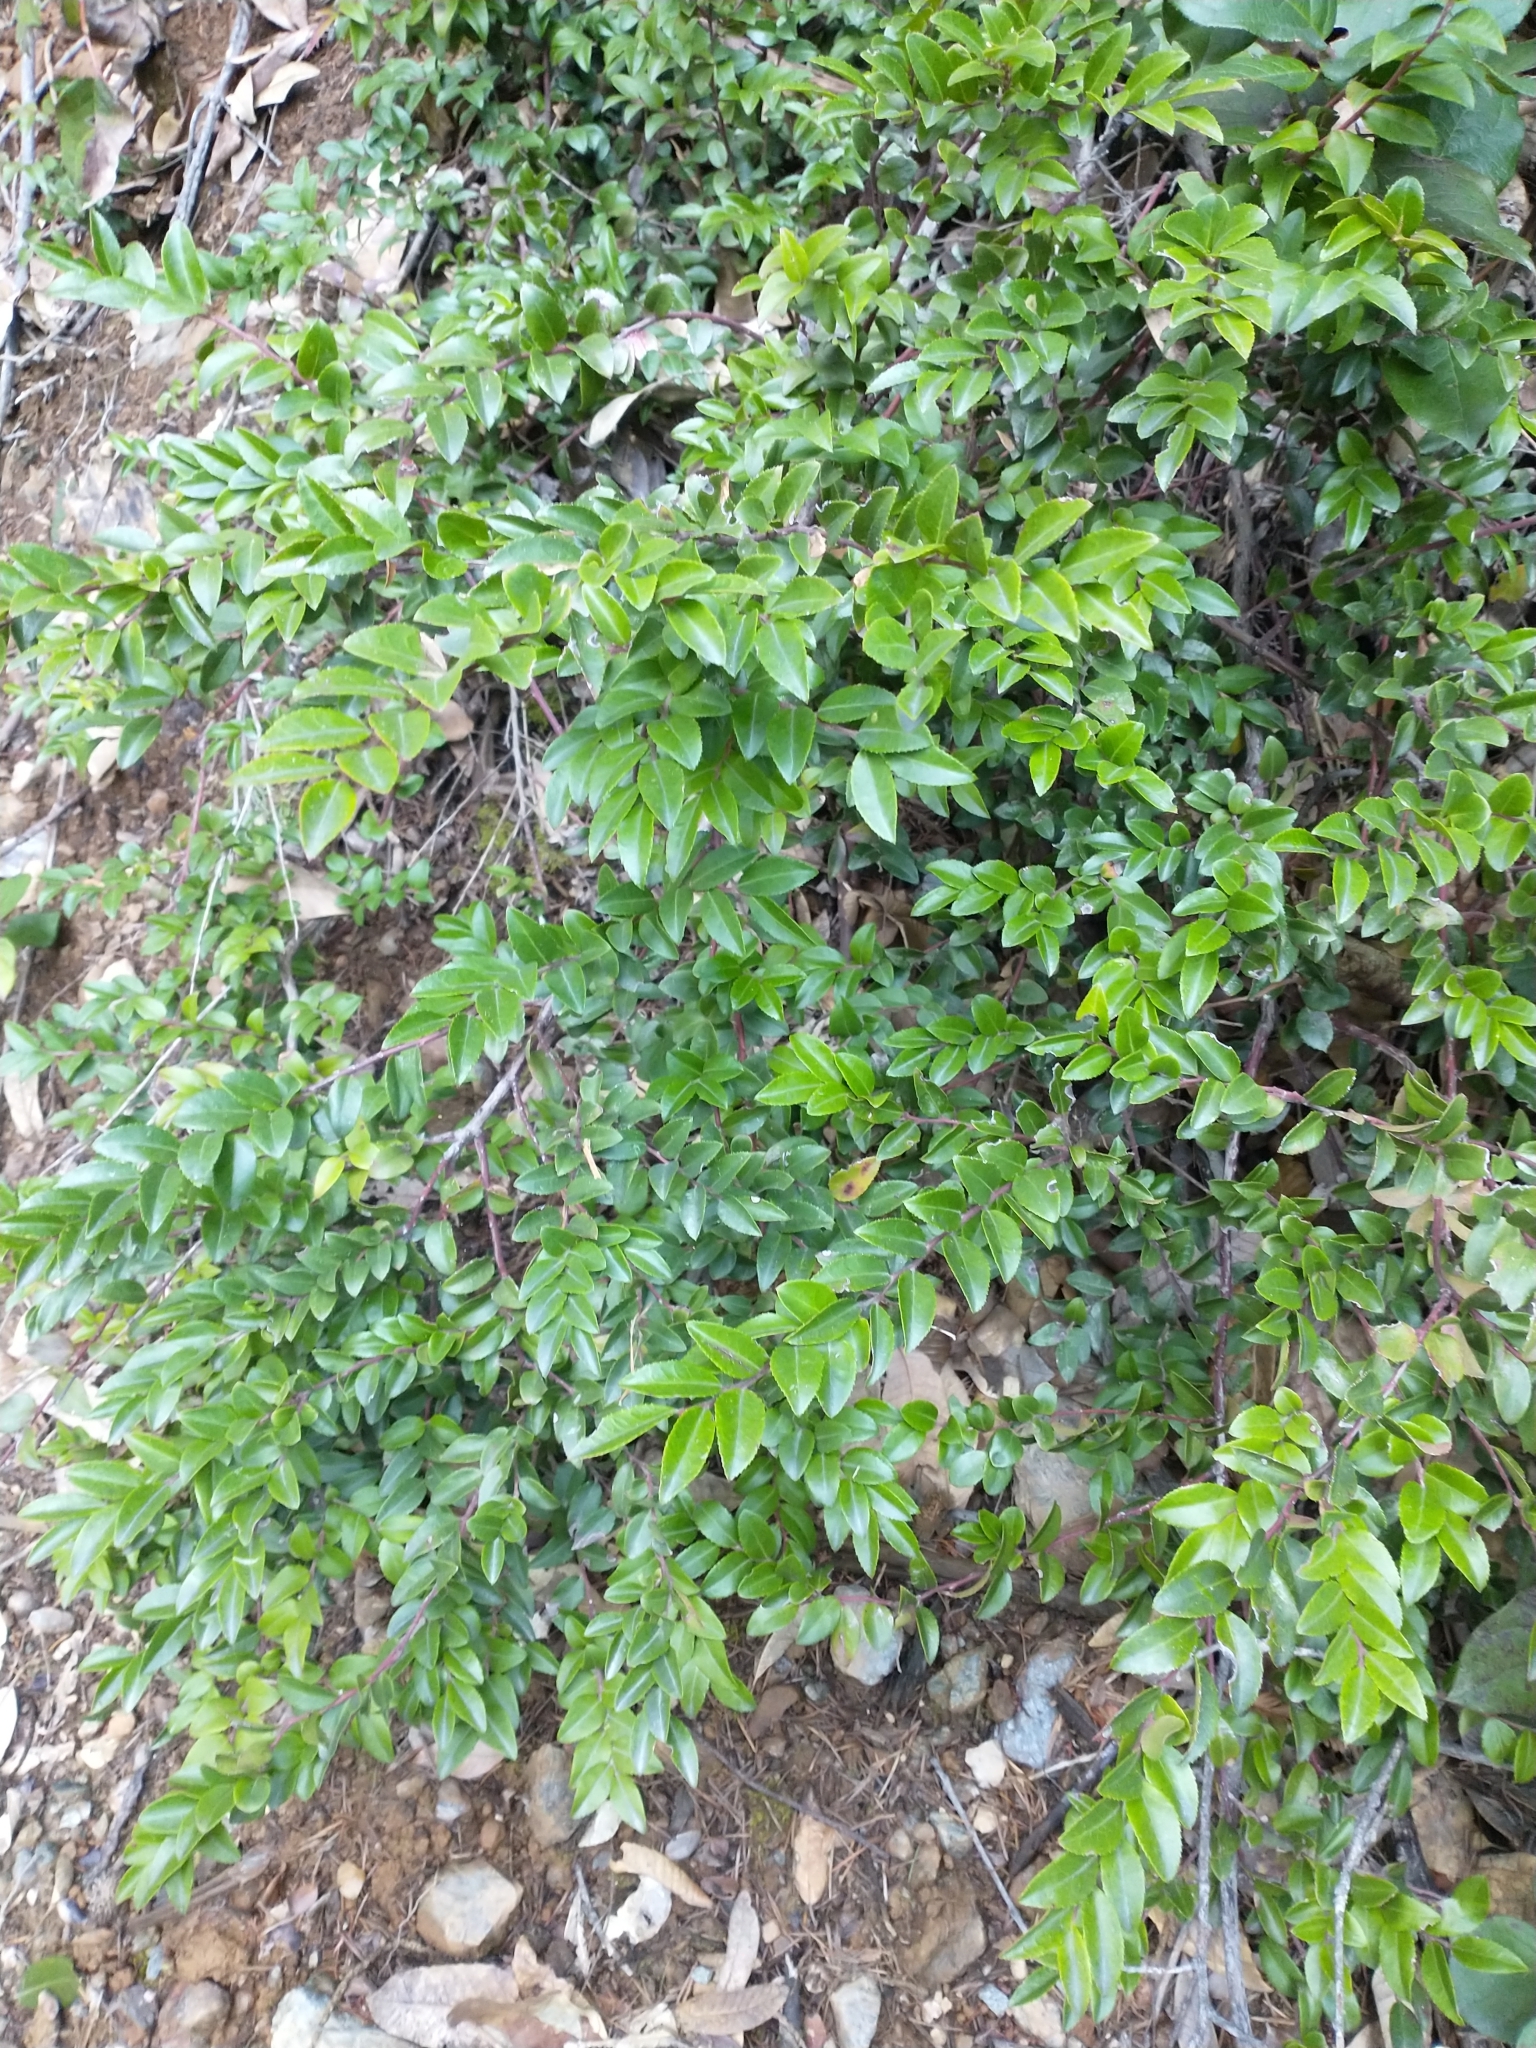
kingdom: Plantae
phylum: Tracheophyta
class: Magnoliopsida
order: Ericales
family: Ericaceae
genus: Vaccinium
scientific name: Vaccinium ovatum
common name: California-huckleberry
